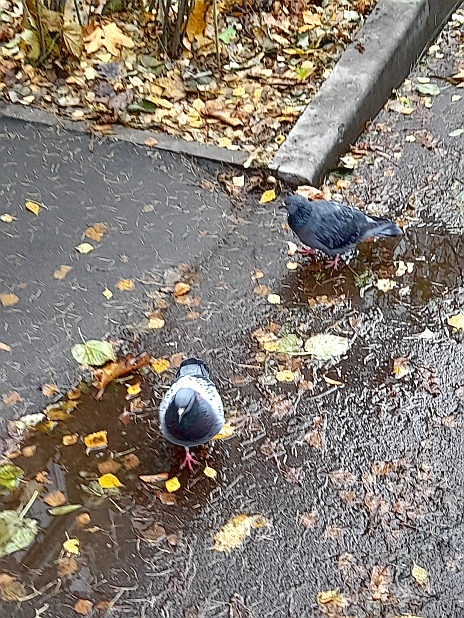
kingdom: Animalia
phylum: Chordata
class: Aves
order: Columbiformes
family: Columbidae
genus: Columba
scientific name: Columba livia
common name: Rock pigeon
